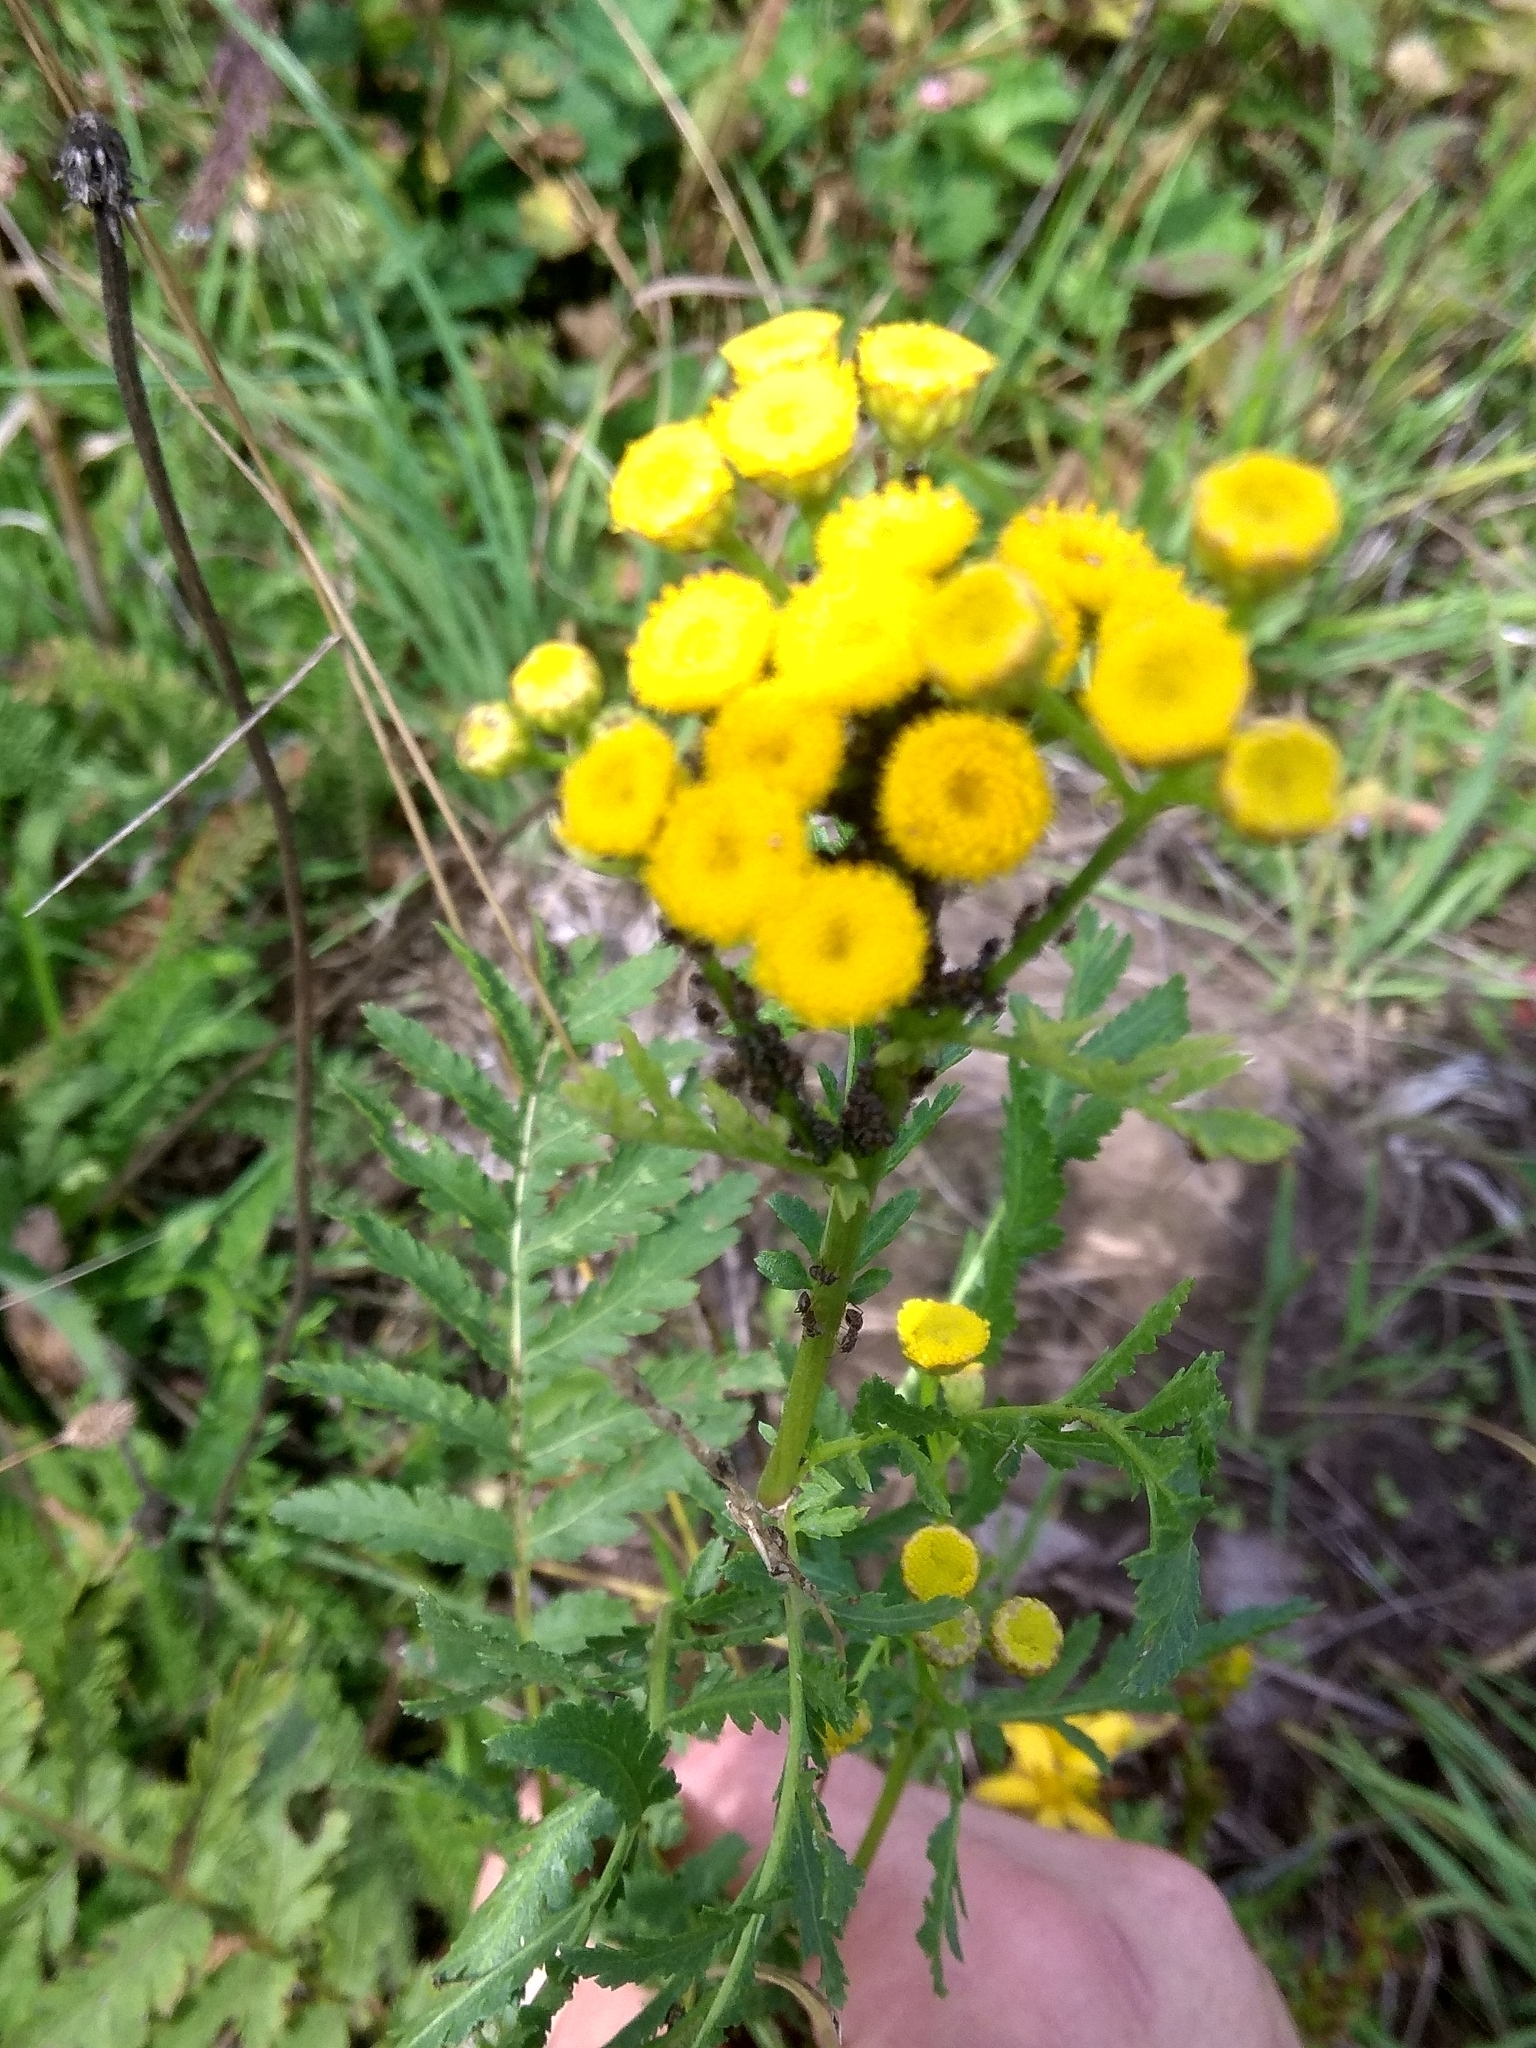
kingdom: Plantae
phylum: Tracheophyta
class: Magnoliopsida
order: Asterales
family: Asteraceae
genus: Tanacetum
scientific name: Tanacetum vulgare
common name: Common tansy
